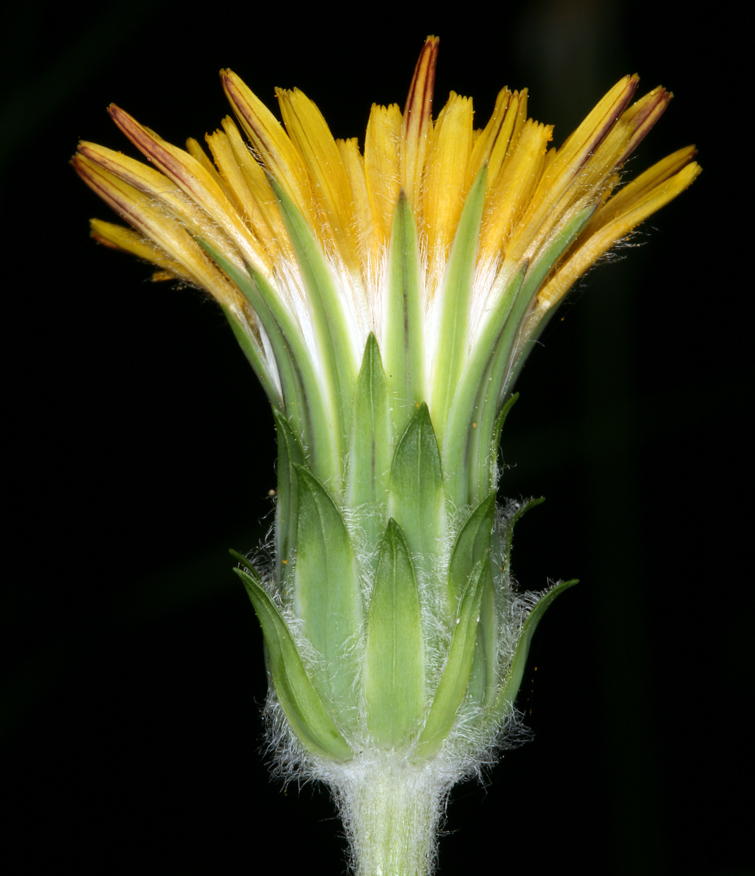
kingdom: Plantae
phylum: Tracheophyta
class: Magnoliopsida
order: Asterales
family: Asteraceae
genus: Agoseris
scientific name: Agoseris grandiflora
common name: Grassland agoseris
